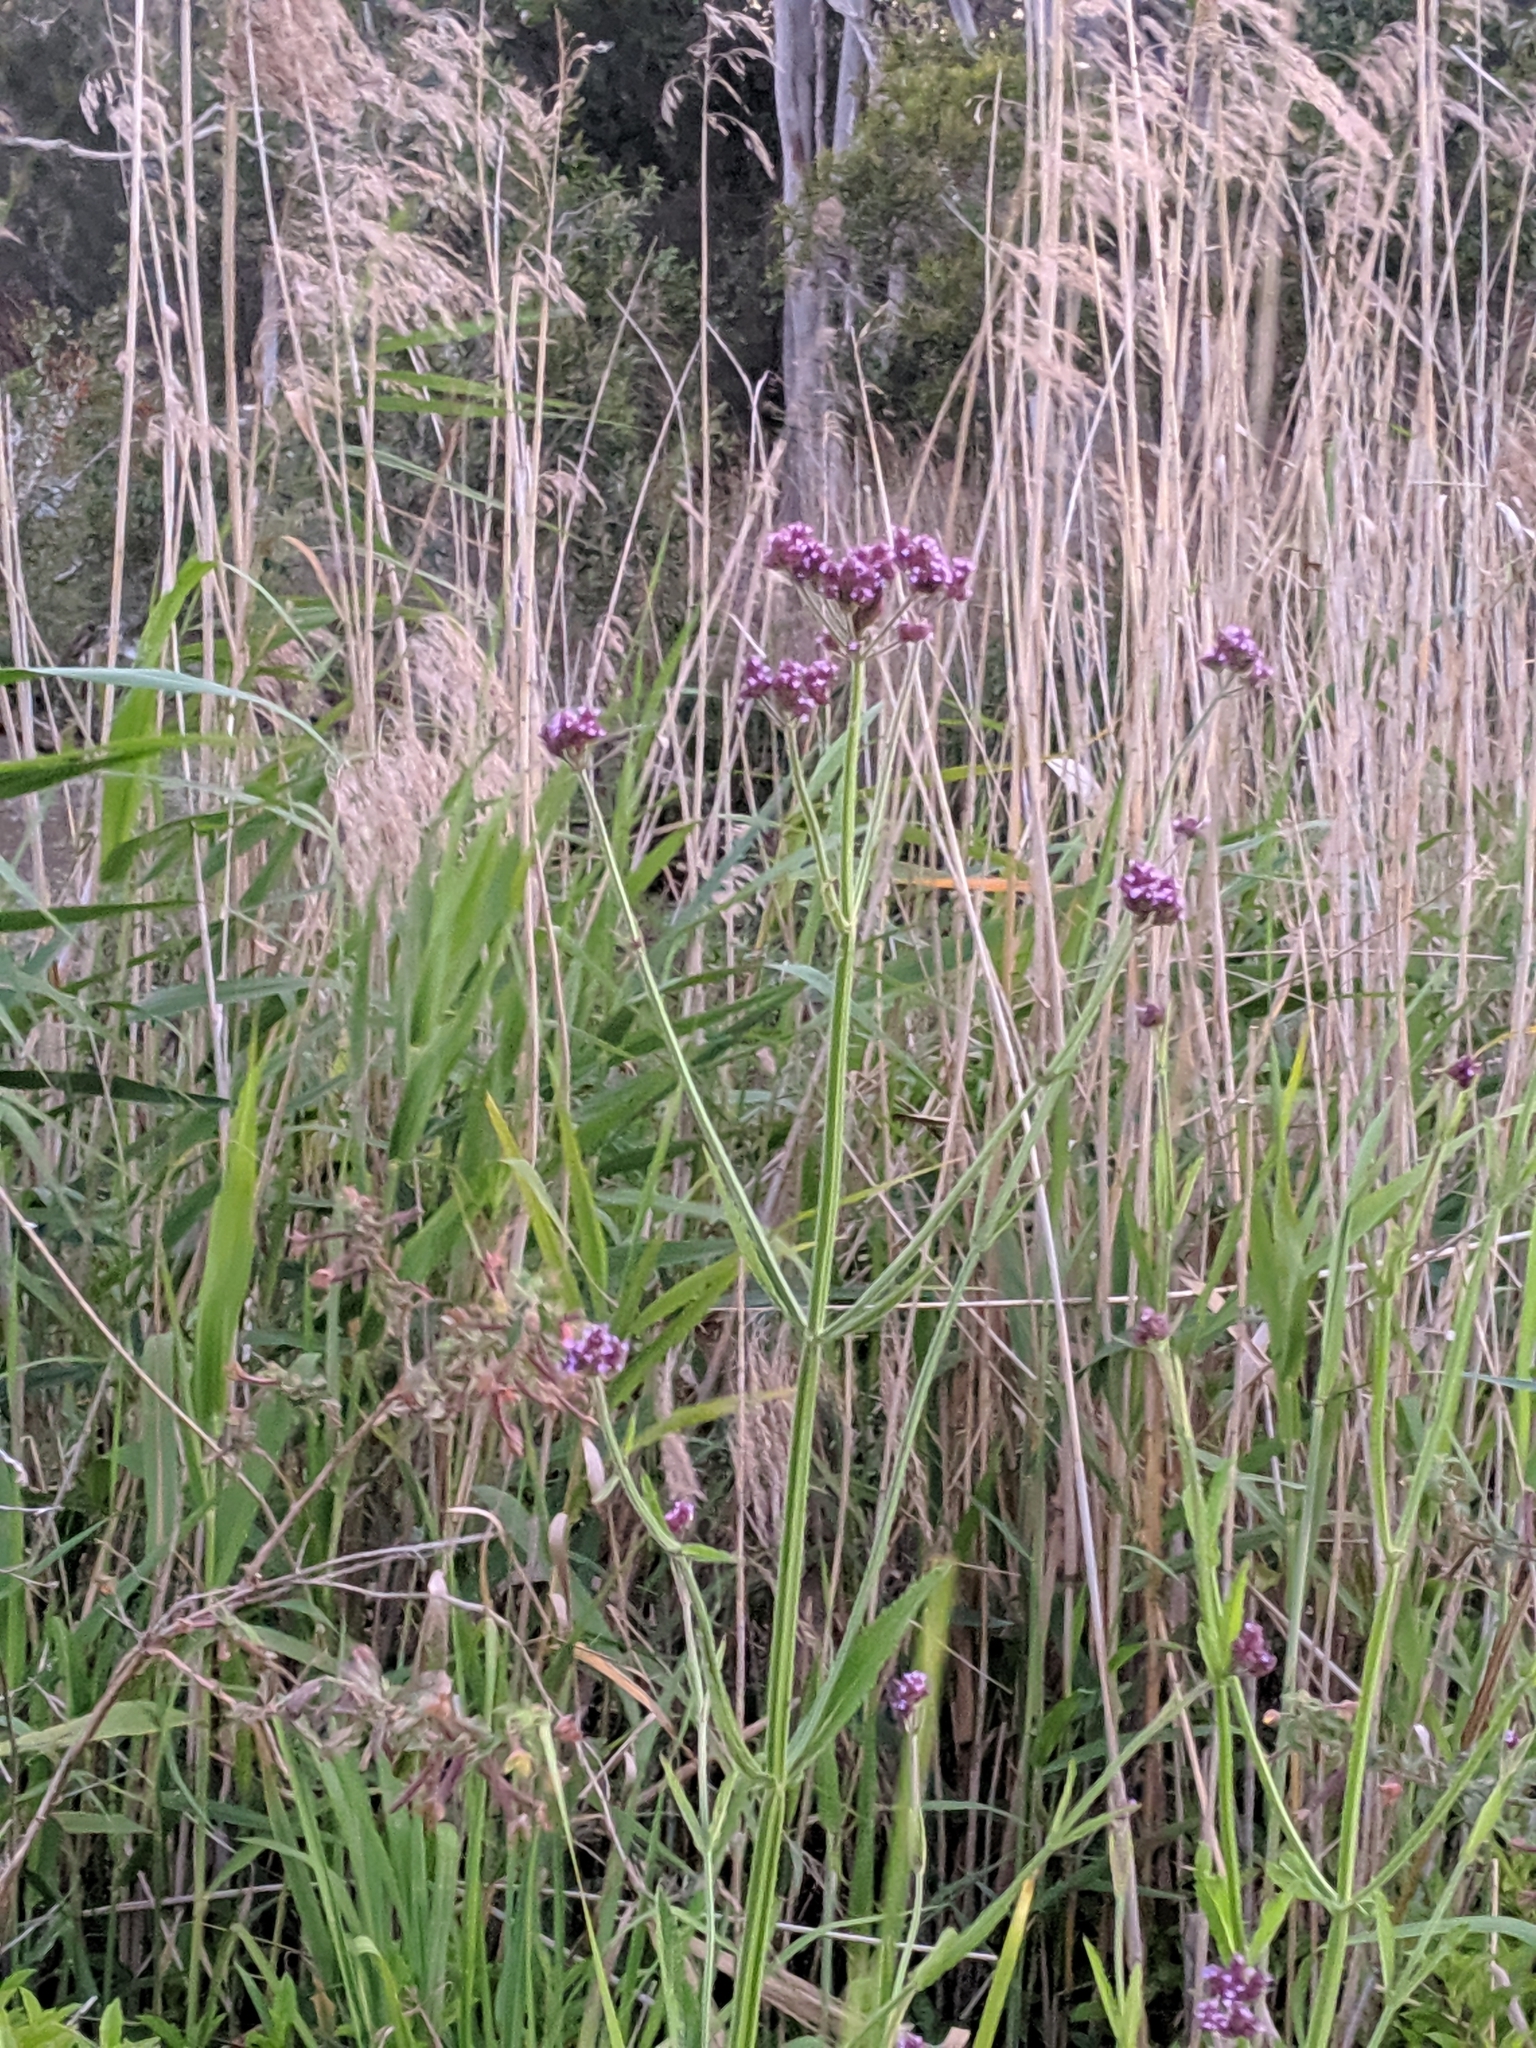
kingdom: Plantae
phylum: Tracheophyta
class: Magnoliopsida
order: Lamiales
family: Verbenaceae
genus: Verbena
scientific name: Verbena bonariensis
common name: Purpletop vervain
